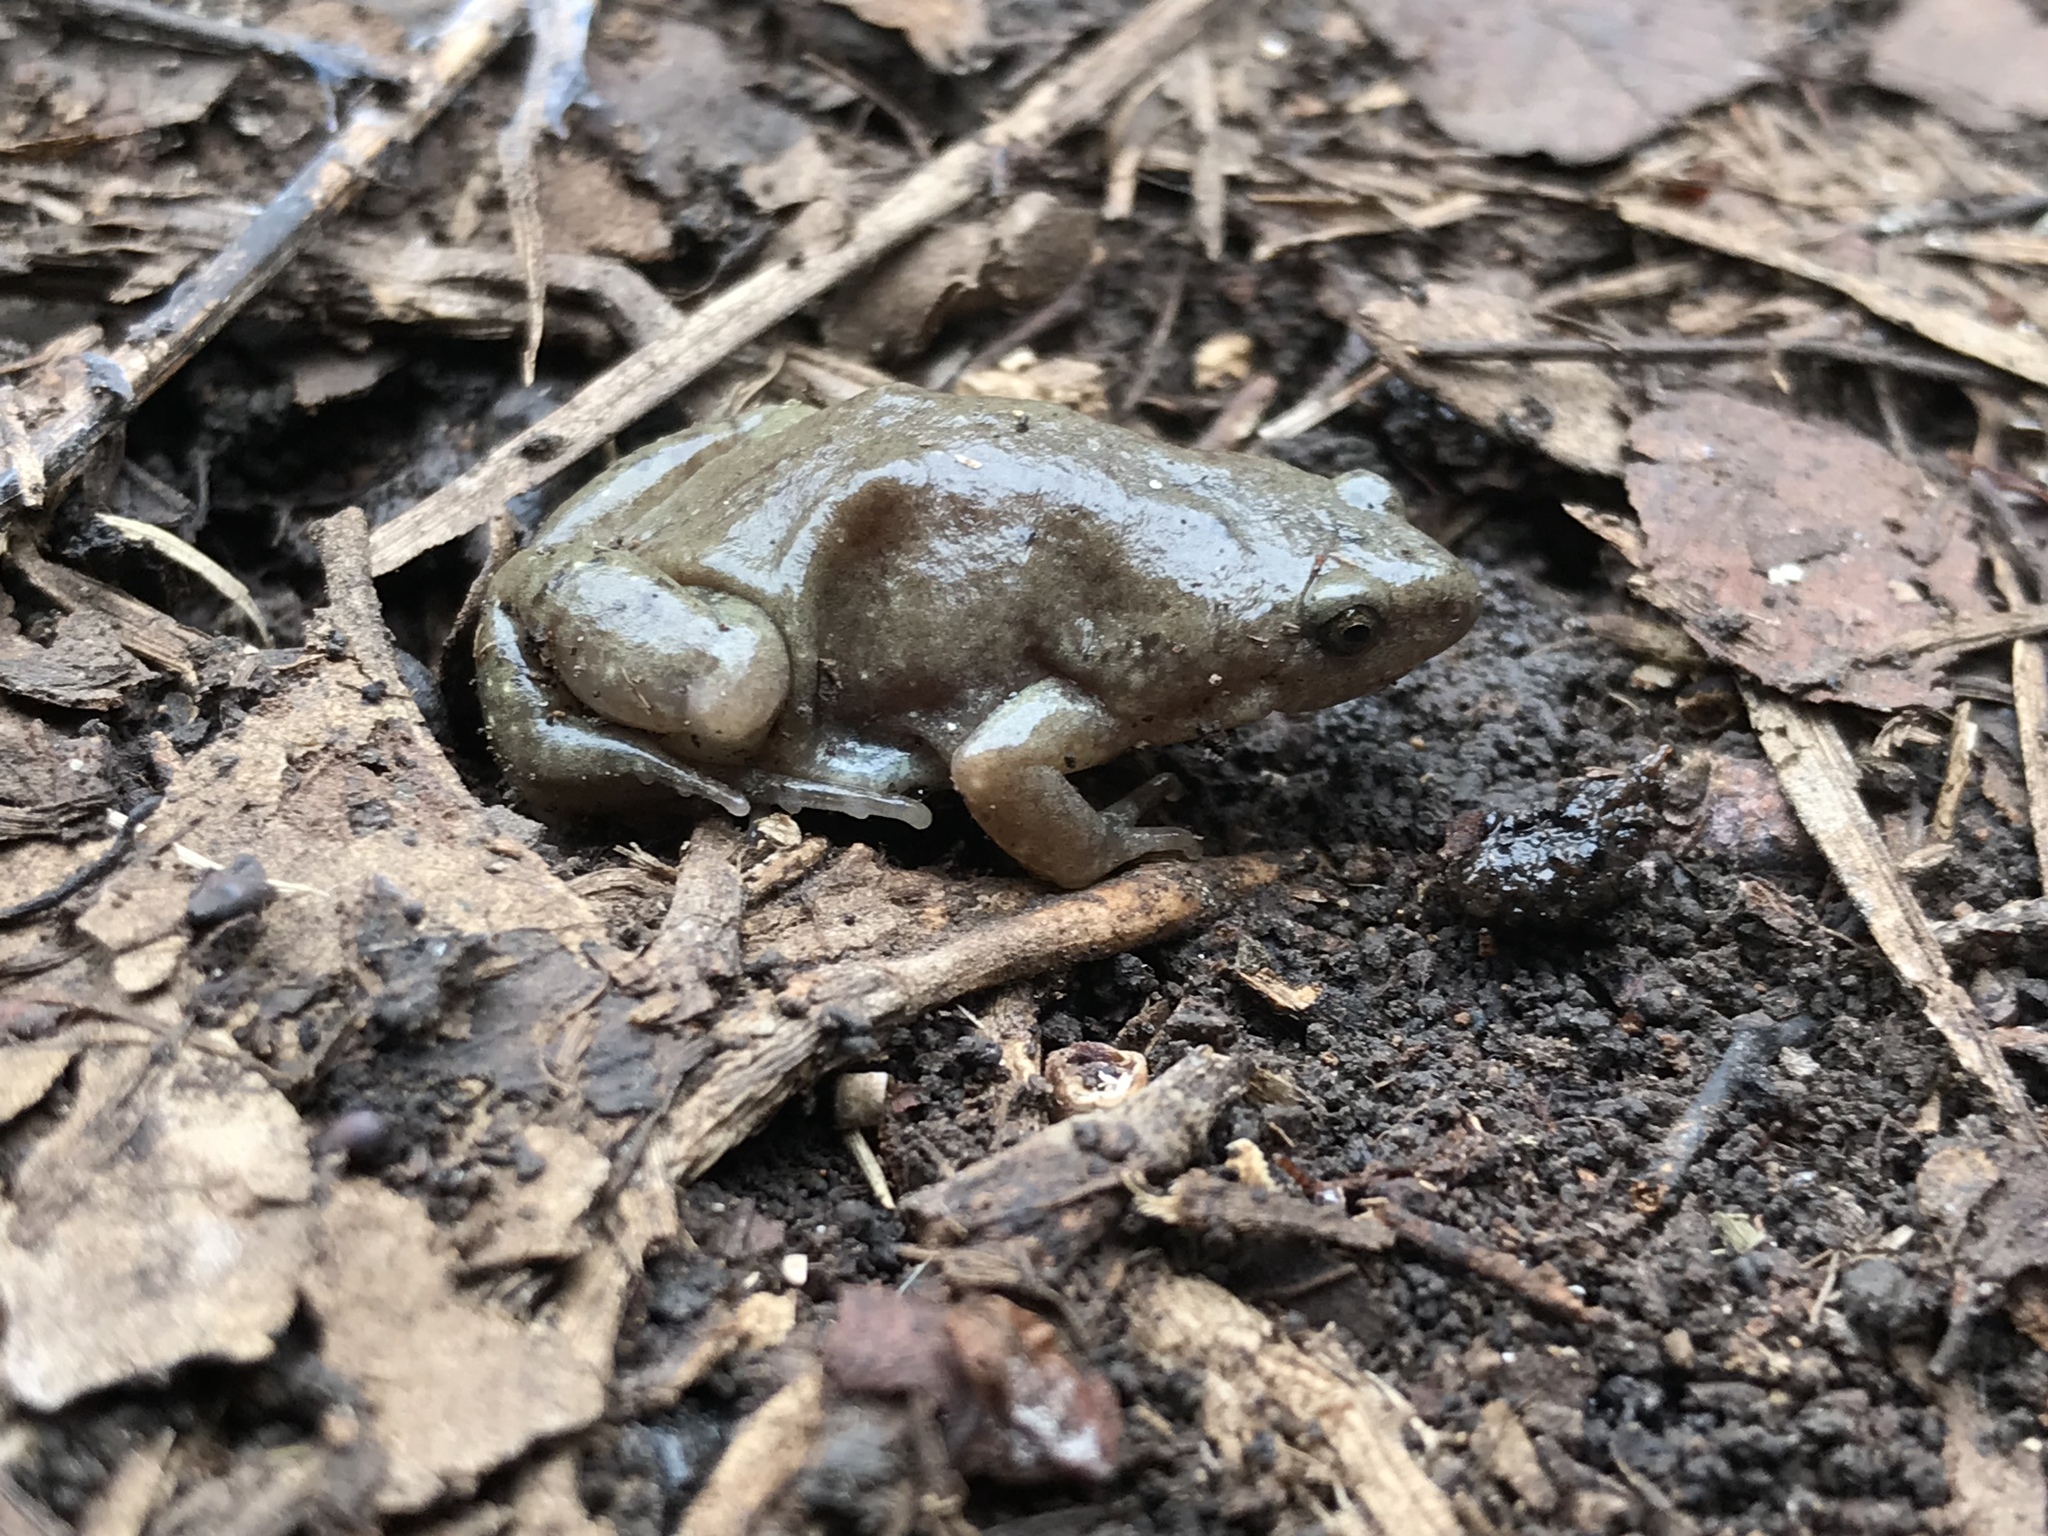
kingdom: Animalia
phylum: Chordata
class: Amphibia
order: Anura
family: Microhylidae
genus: Gastrophryne
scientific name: Gastrophryne olivacea
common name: Great plains narrow-mouthed toad
